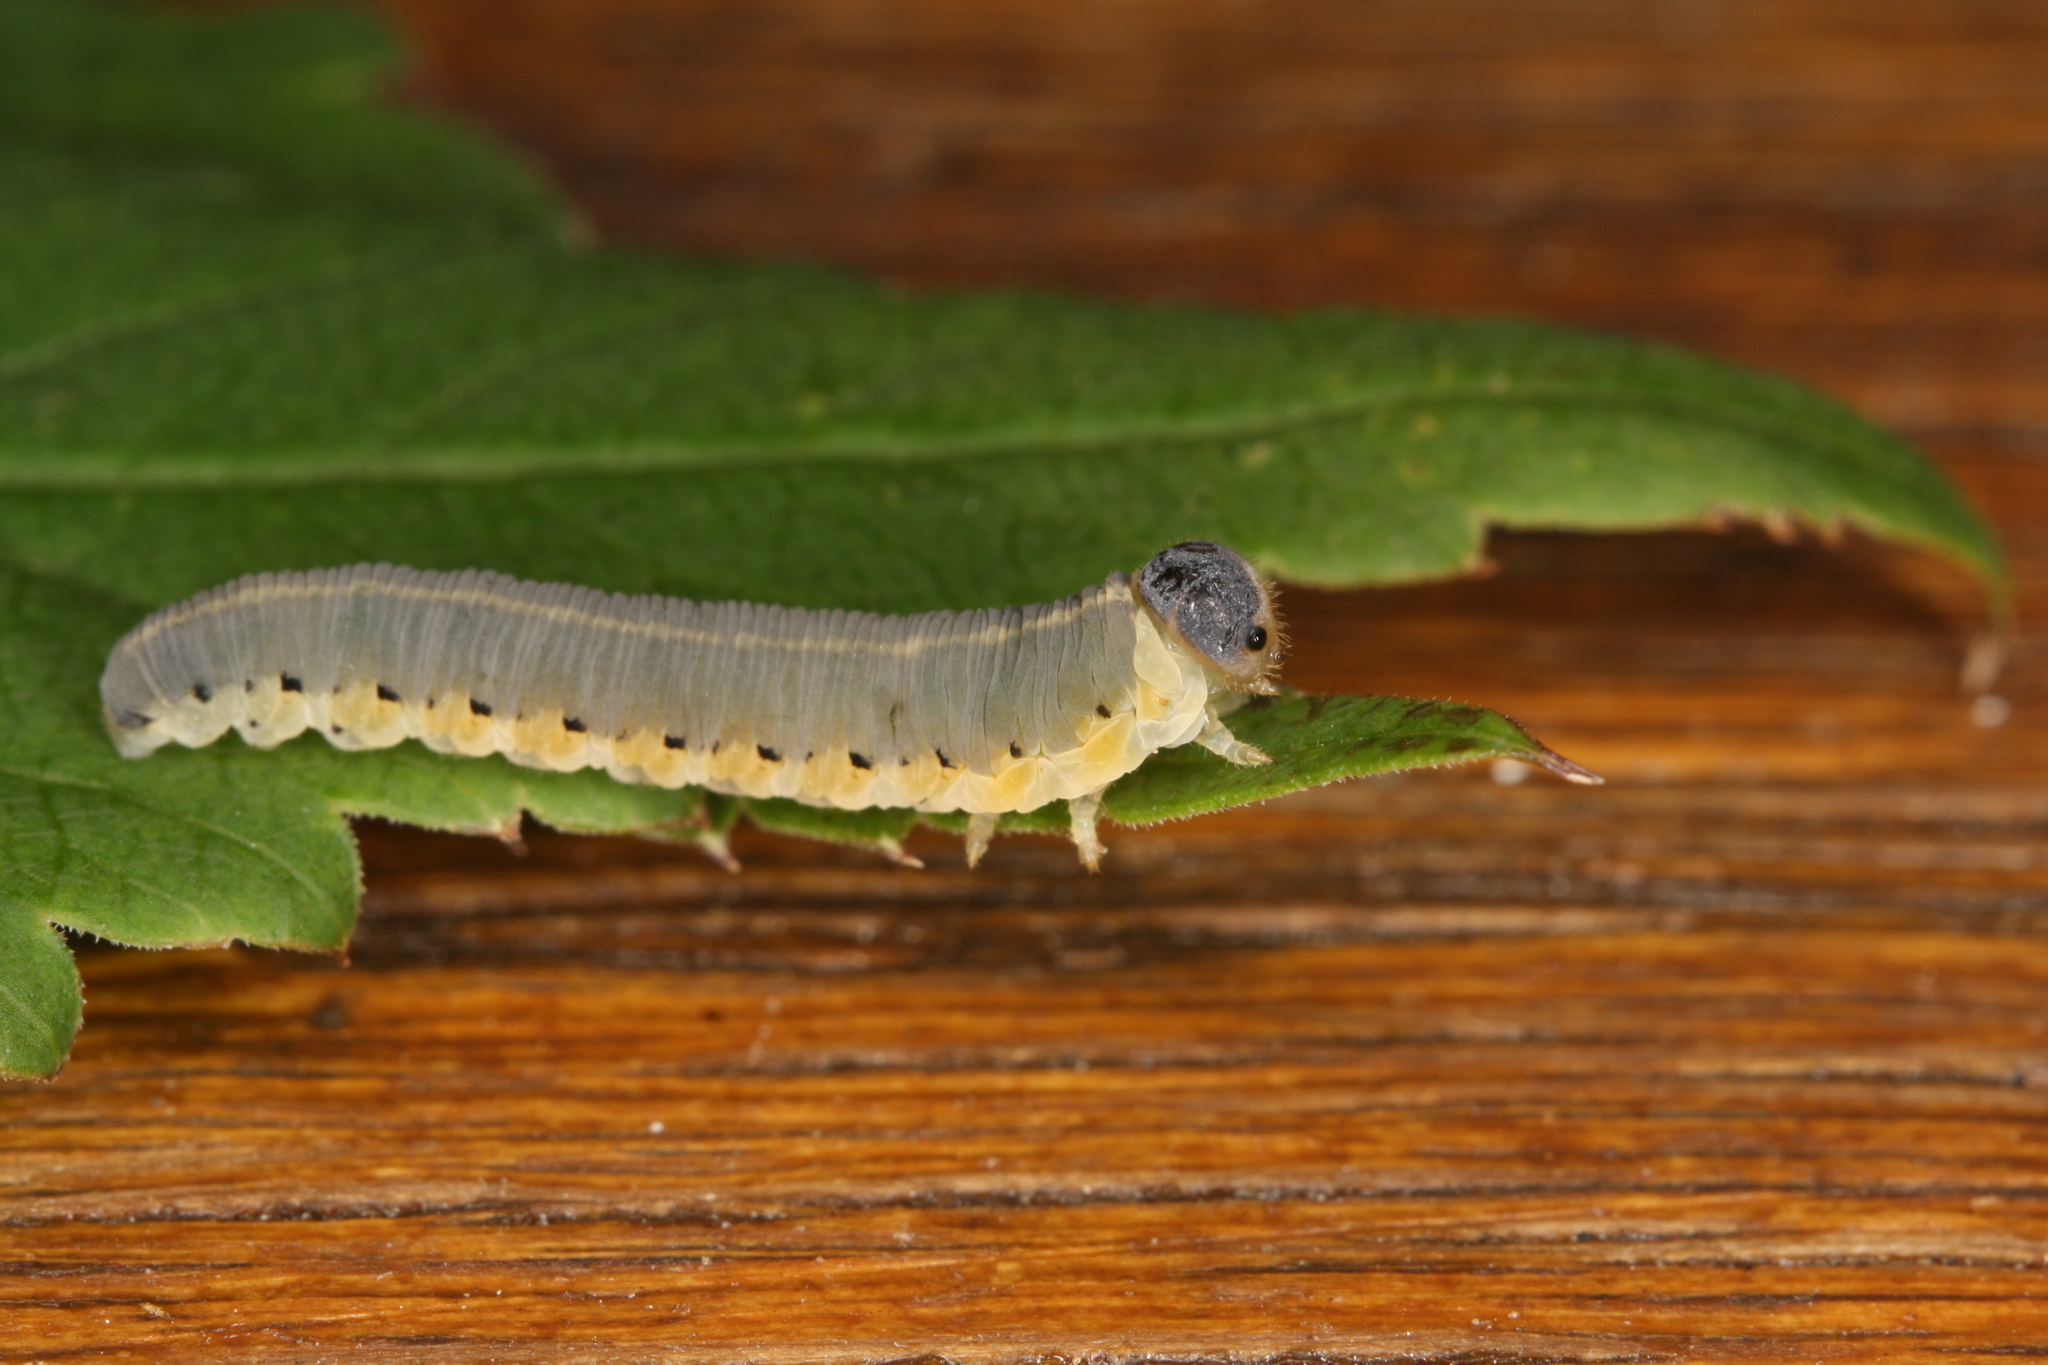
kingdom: Animalia
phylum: Arthropoda
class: Insecta
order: Hymenoptera
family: Tenthredinidae
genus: Tenthredo
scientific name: Tenthredo brevicornis
